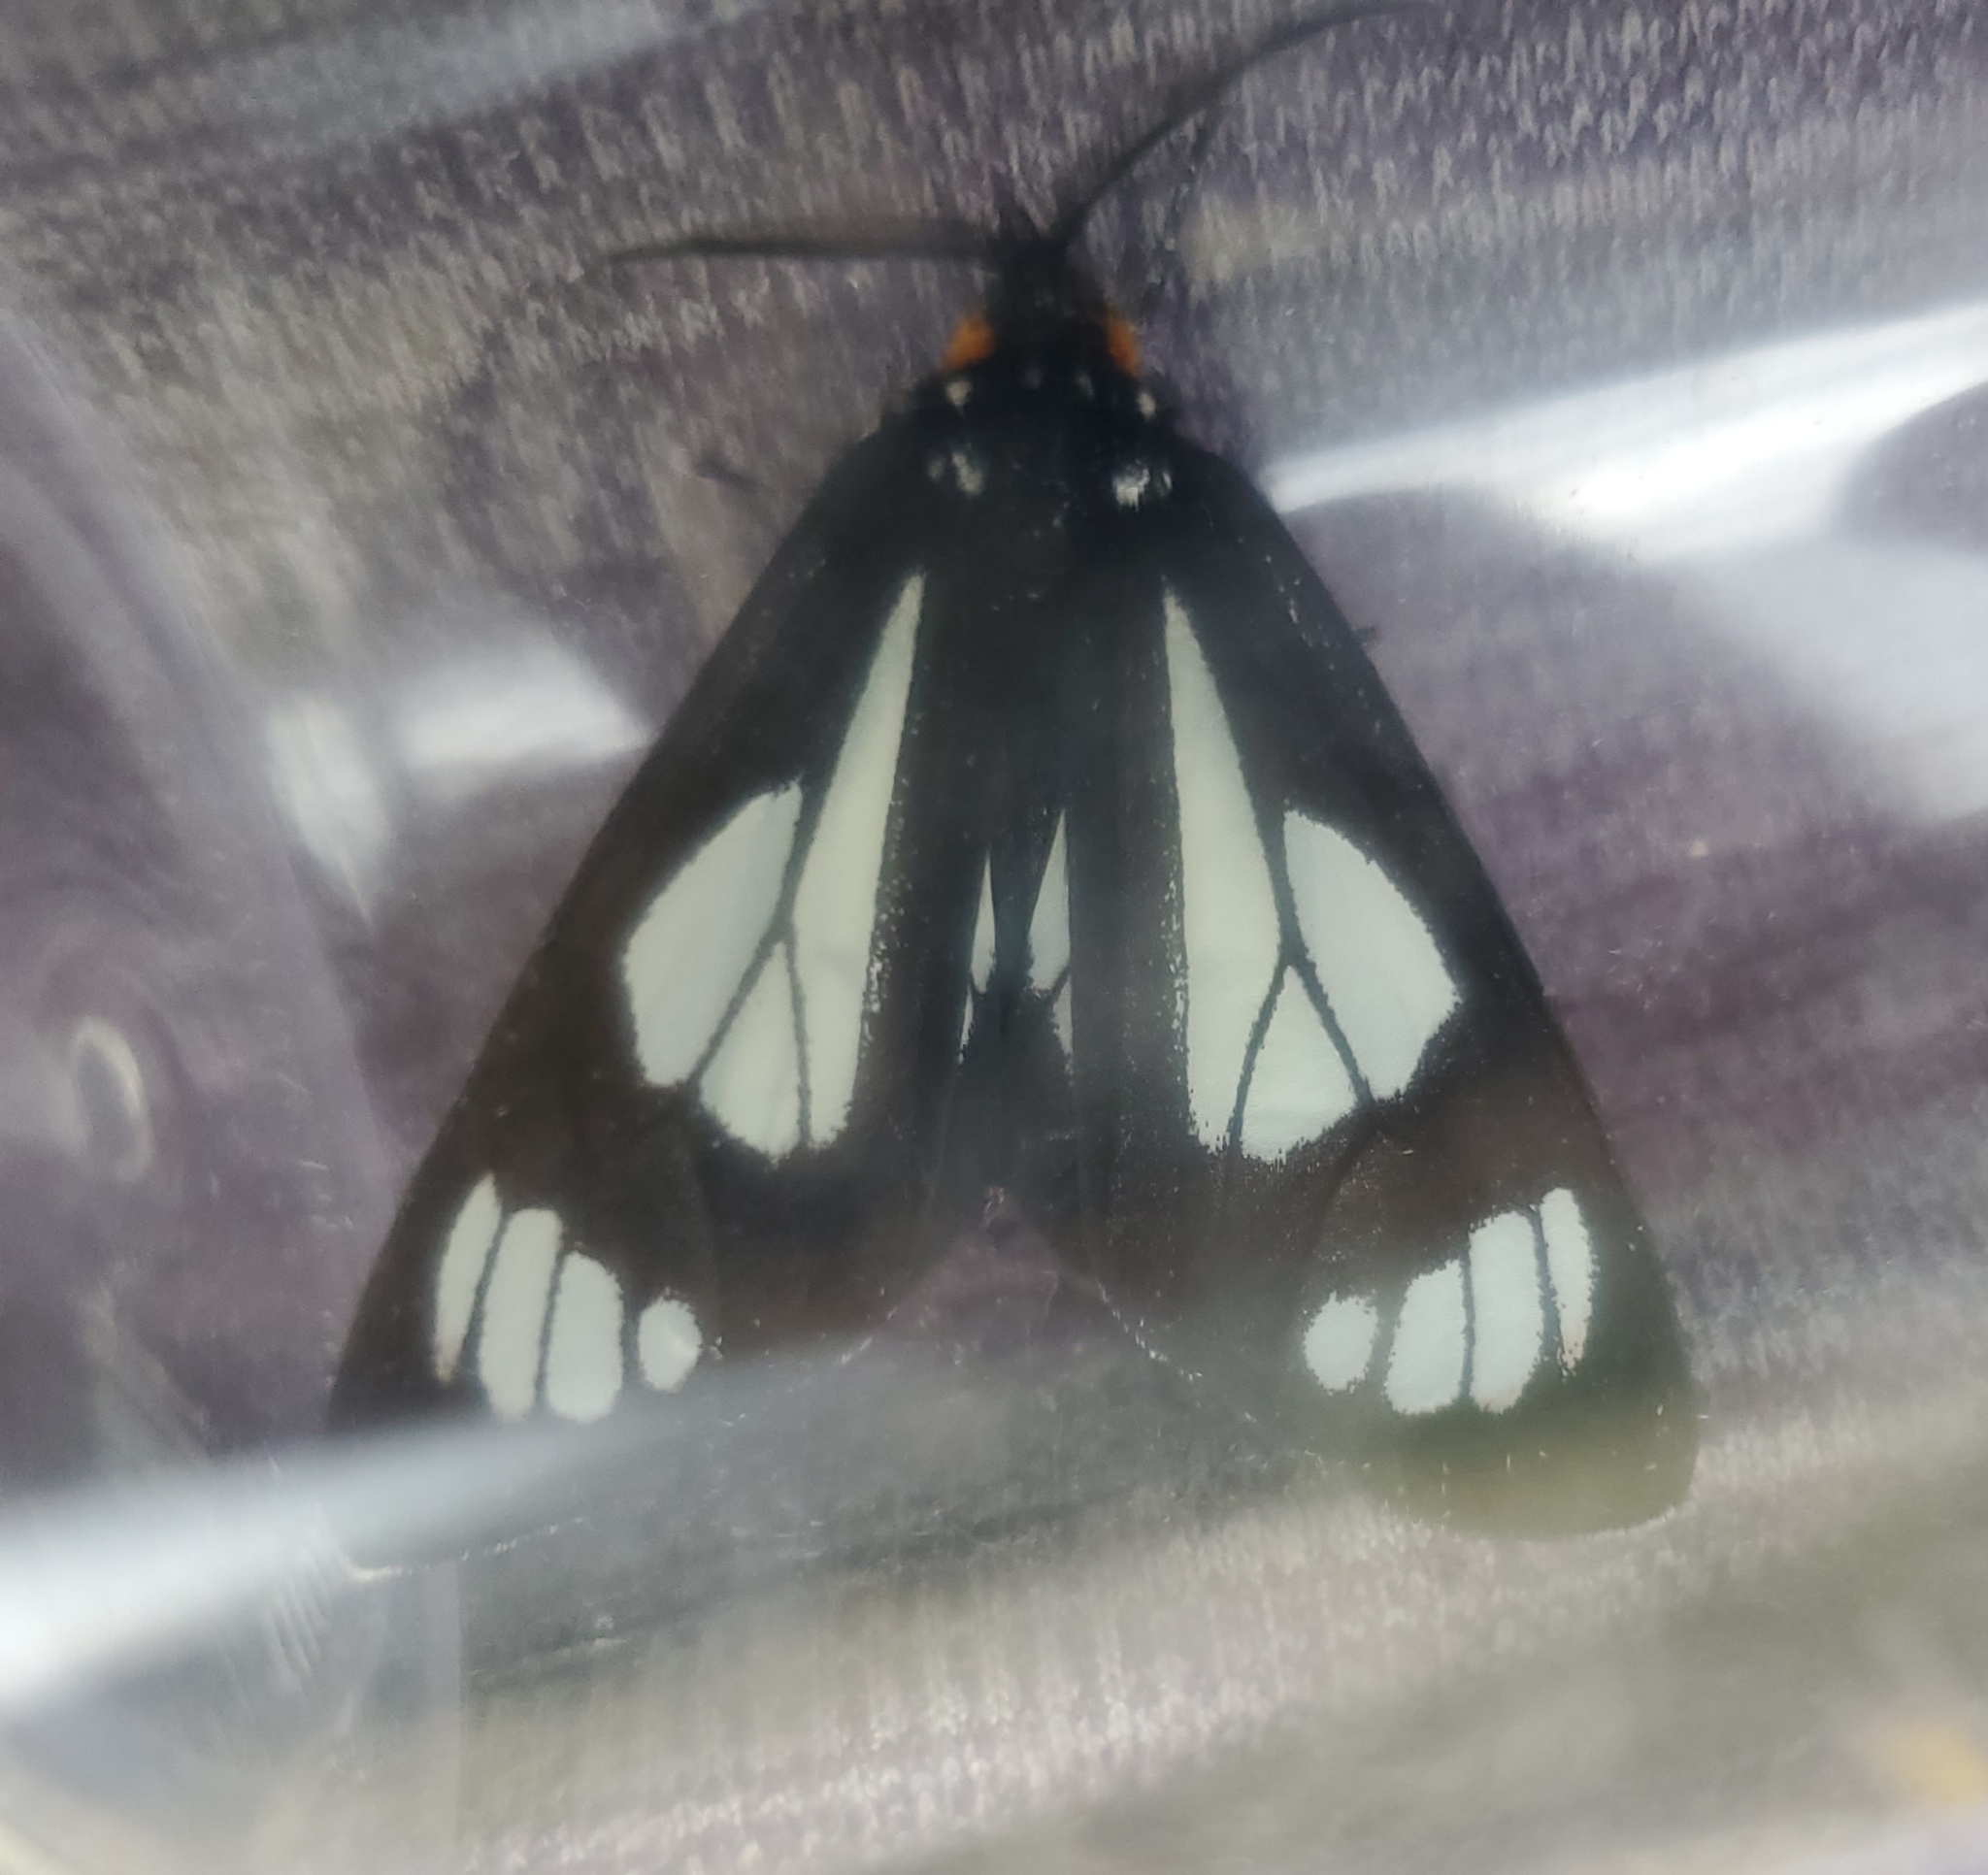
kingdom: Animalia
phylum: Arthropoda
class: Insecta
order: Lepidoptera
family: Erebidae
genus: Gnophaela
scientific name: Gnophaela vermiculata
